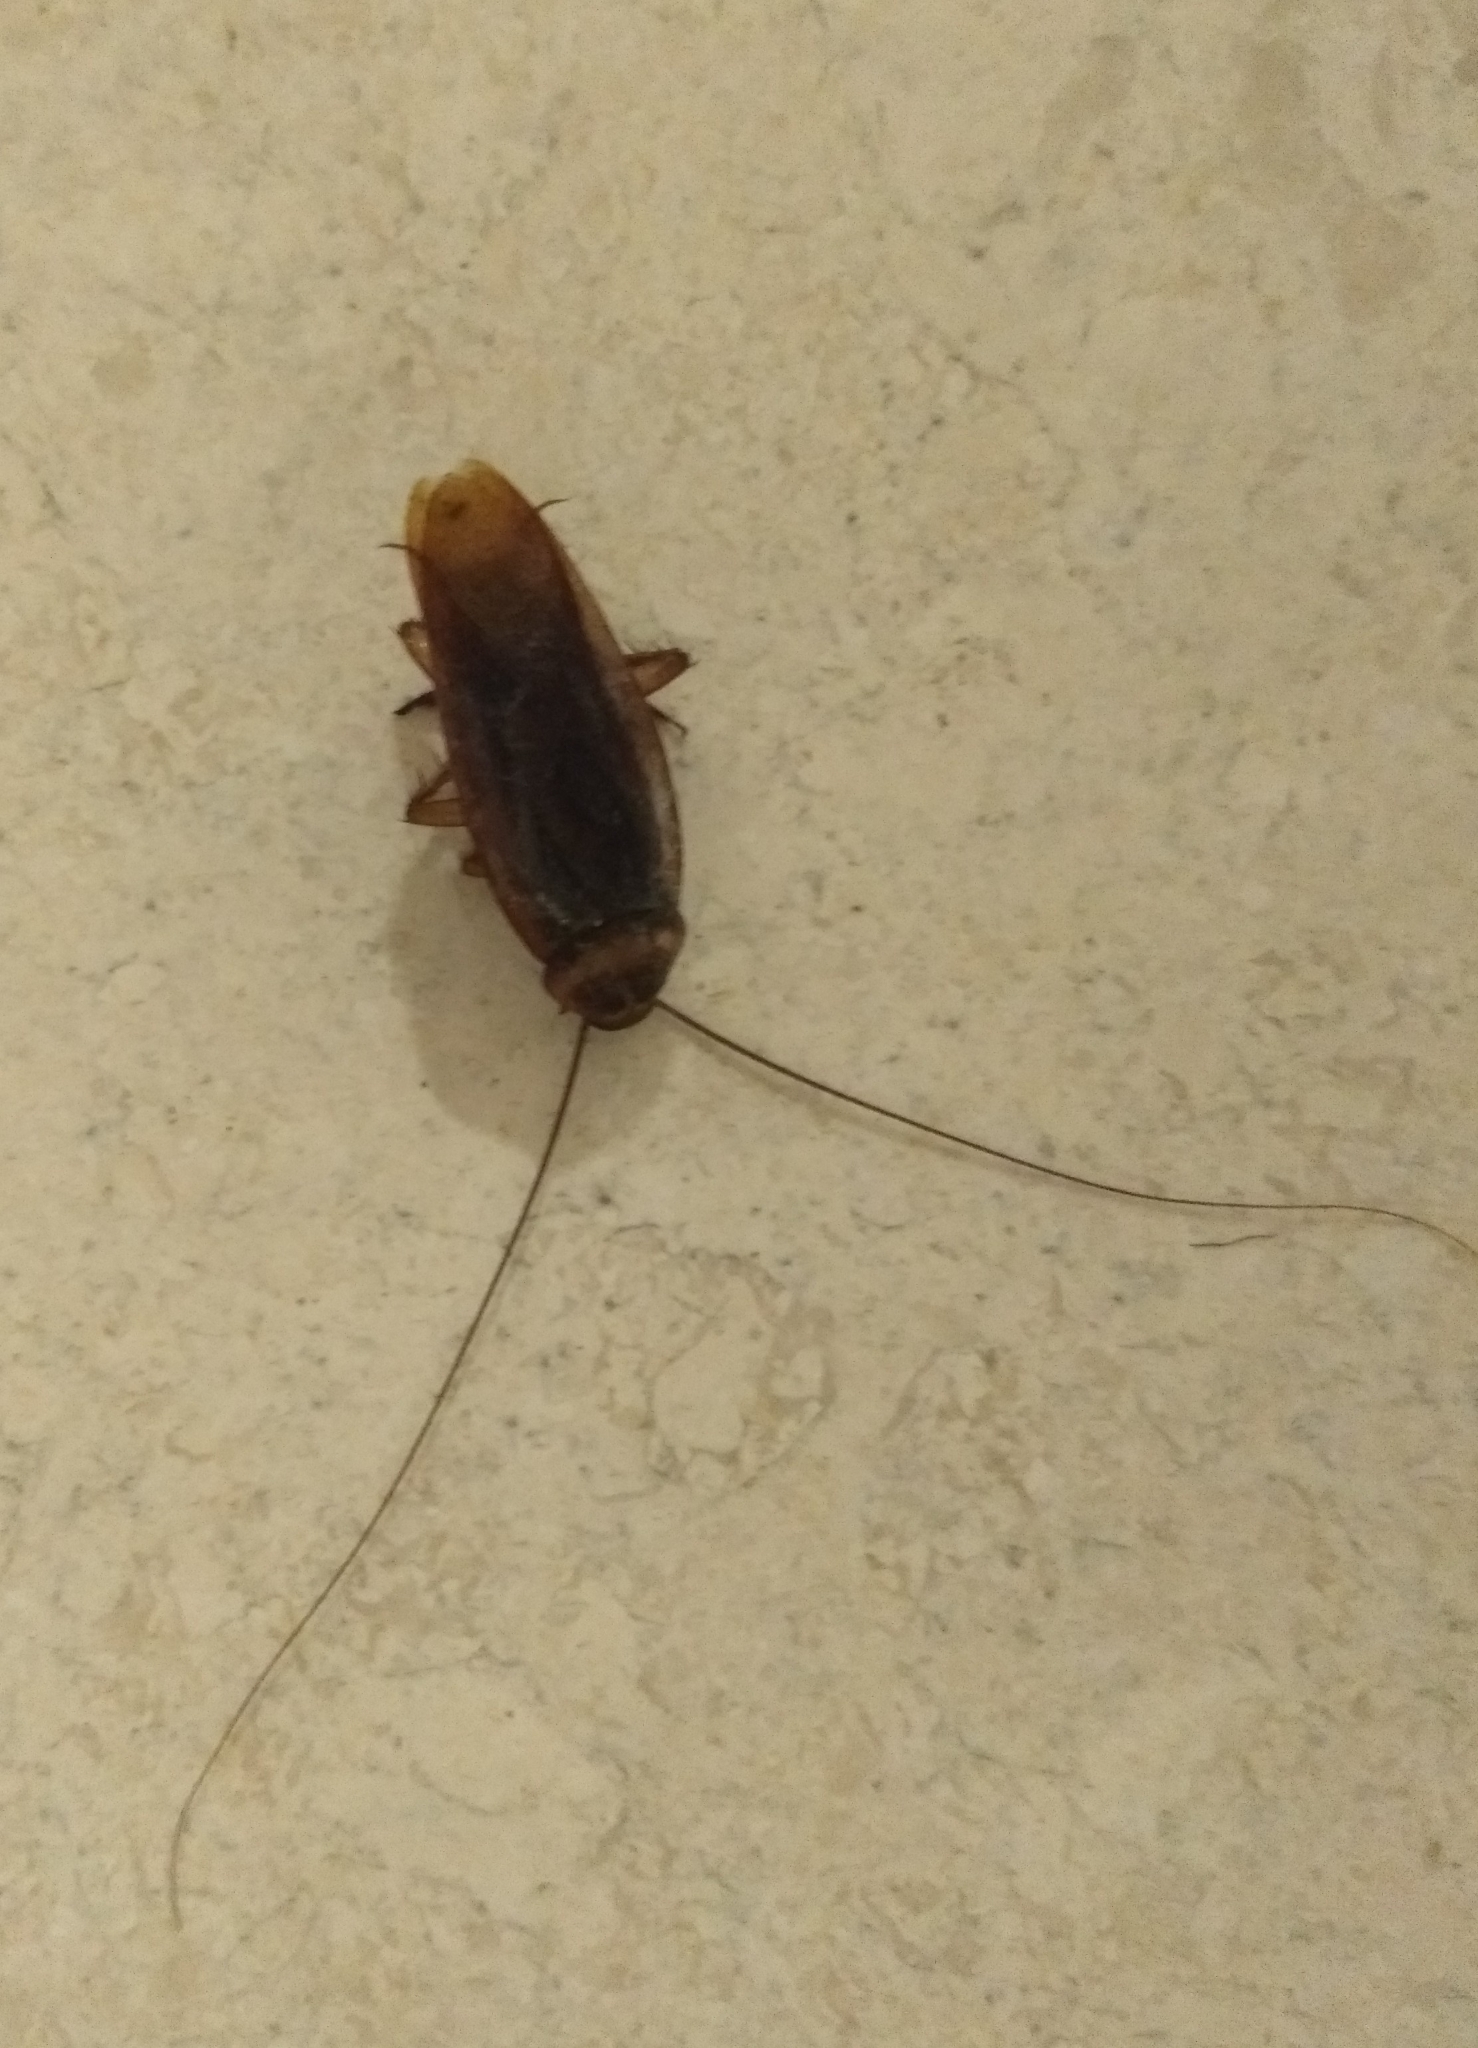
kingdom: Animalia
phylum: Arthropoda
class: Insecta
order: Blattodea
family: Blattidae
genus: Periplaneta
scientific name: Periplaneta americana
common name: American cockroach
